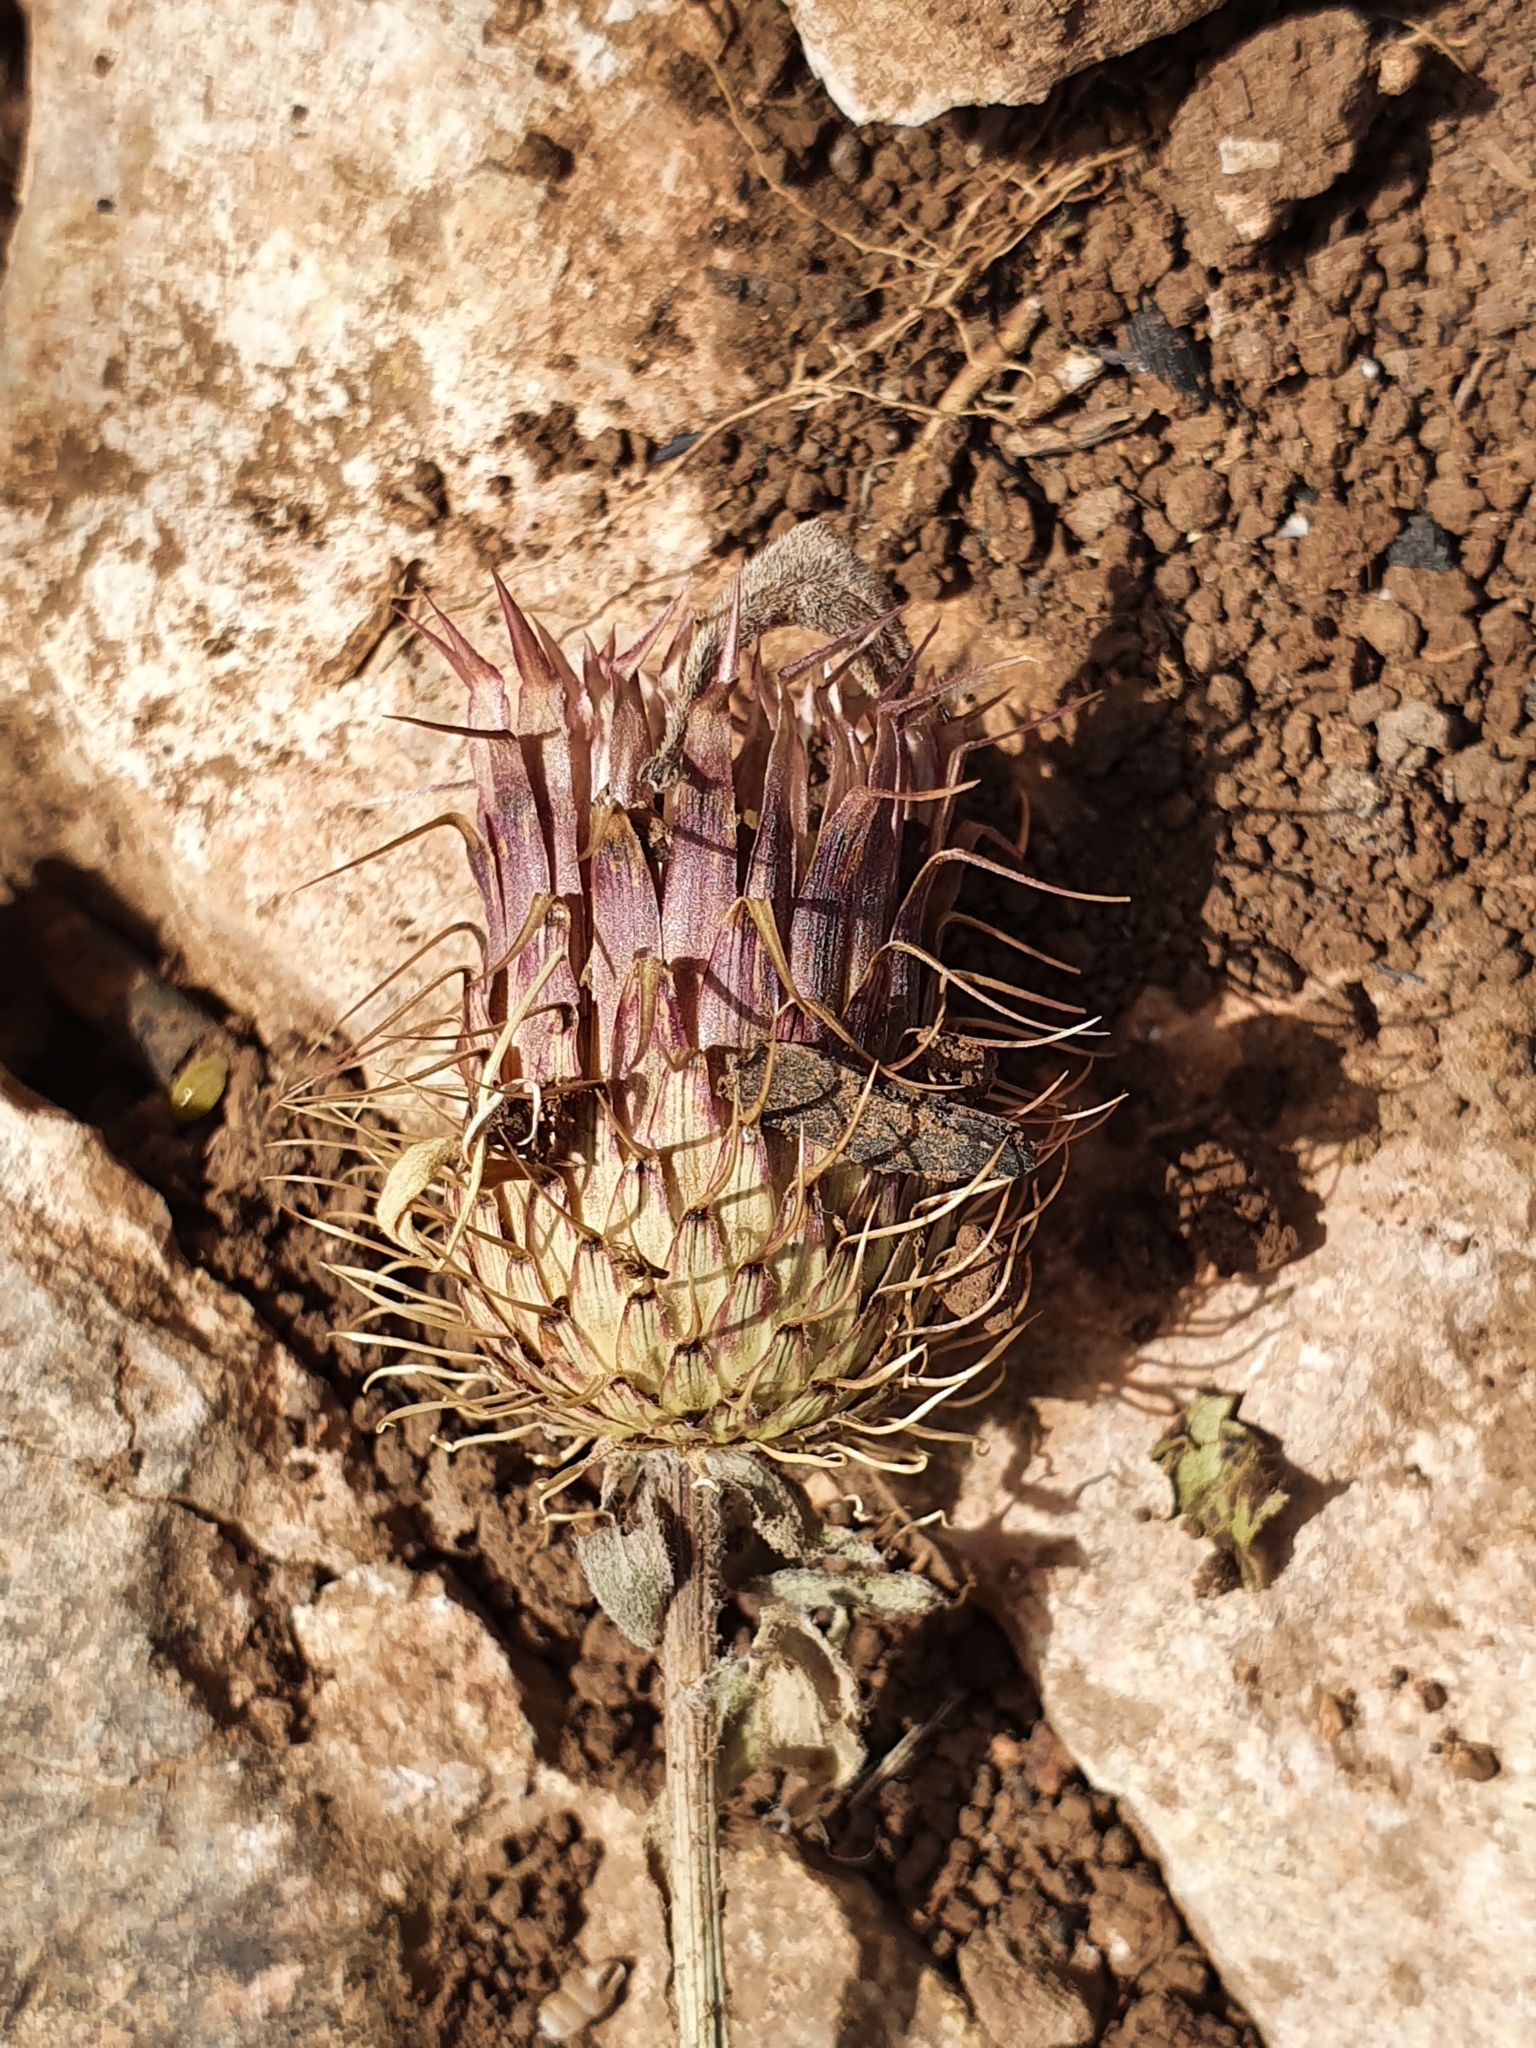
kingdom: Plantae
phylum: Tracheophyta
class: Magnoliopsida
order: Asterales
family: Asteraceae
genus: Klasea
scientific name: Klasea flavescens
